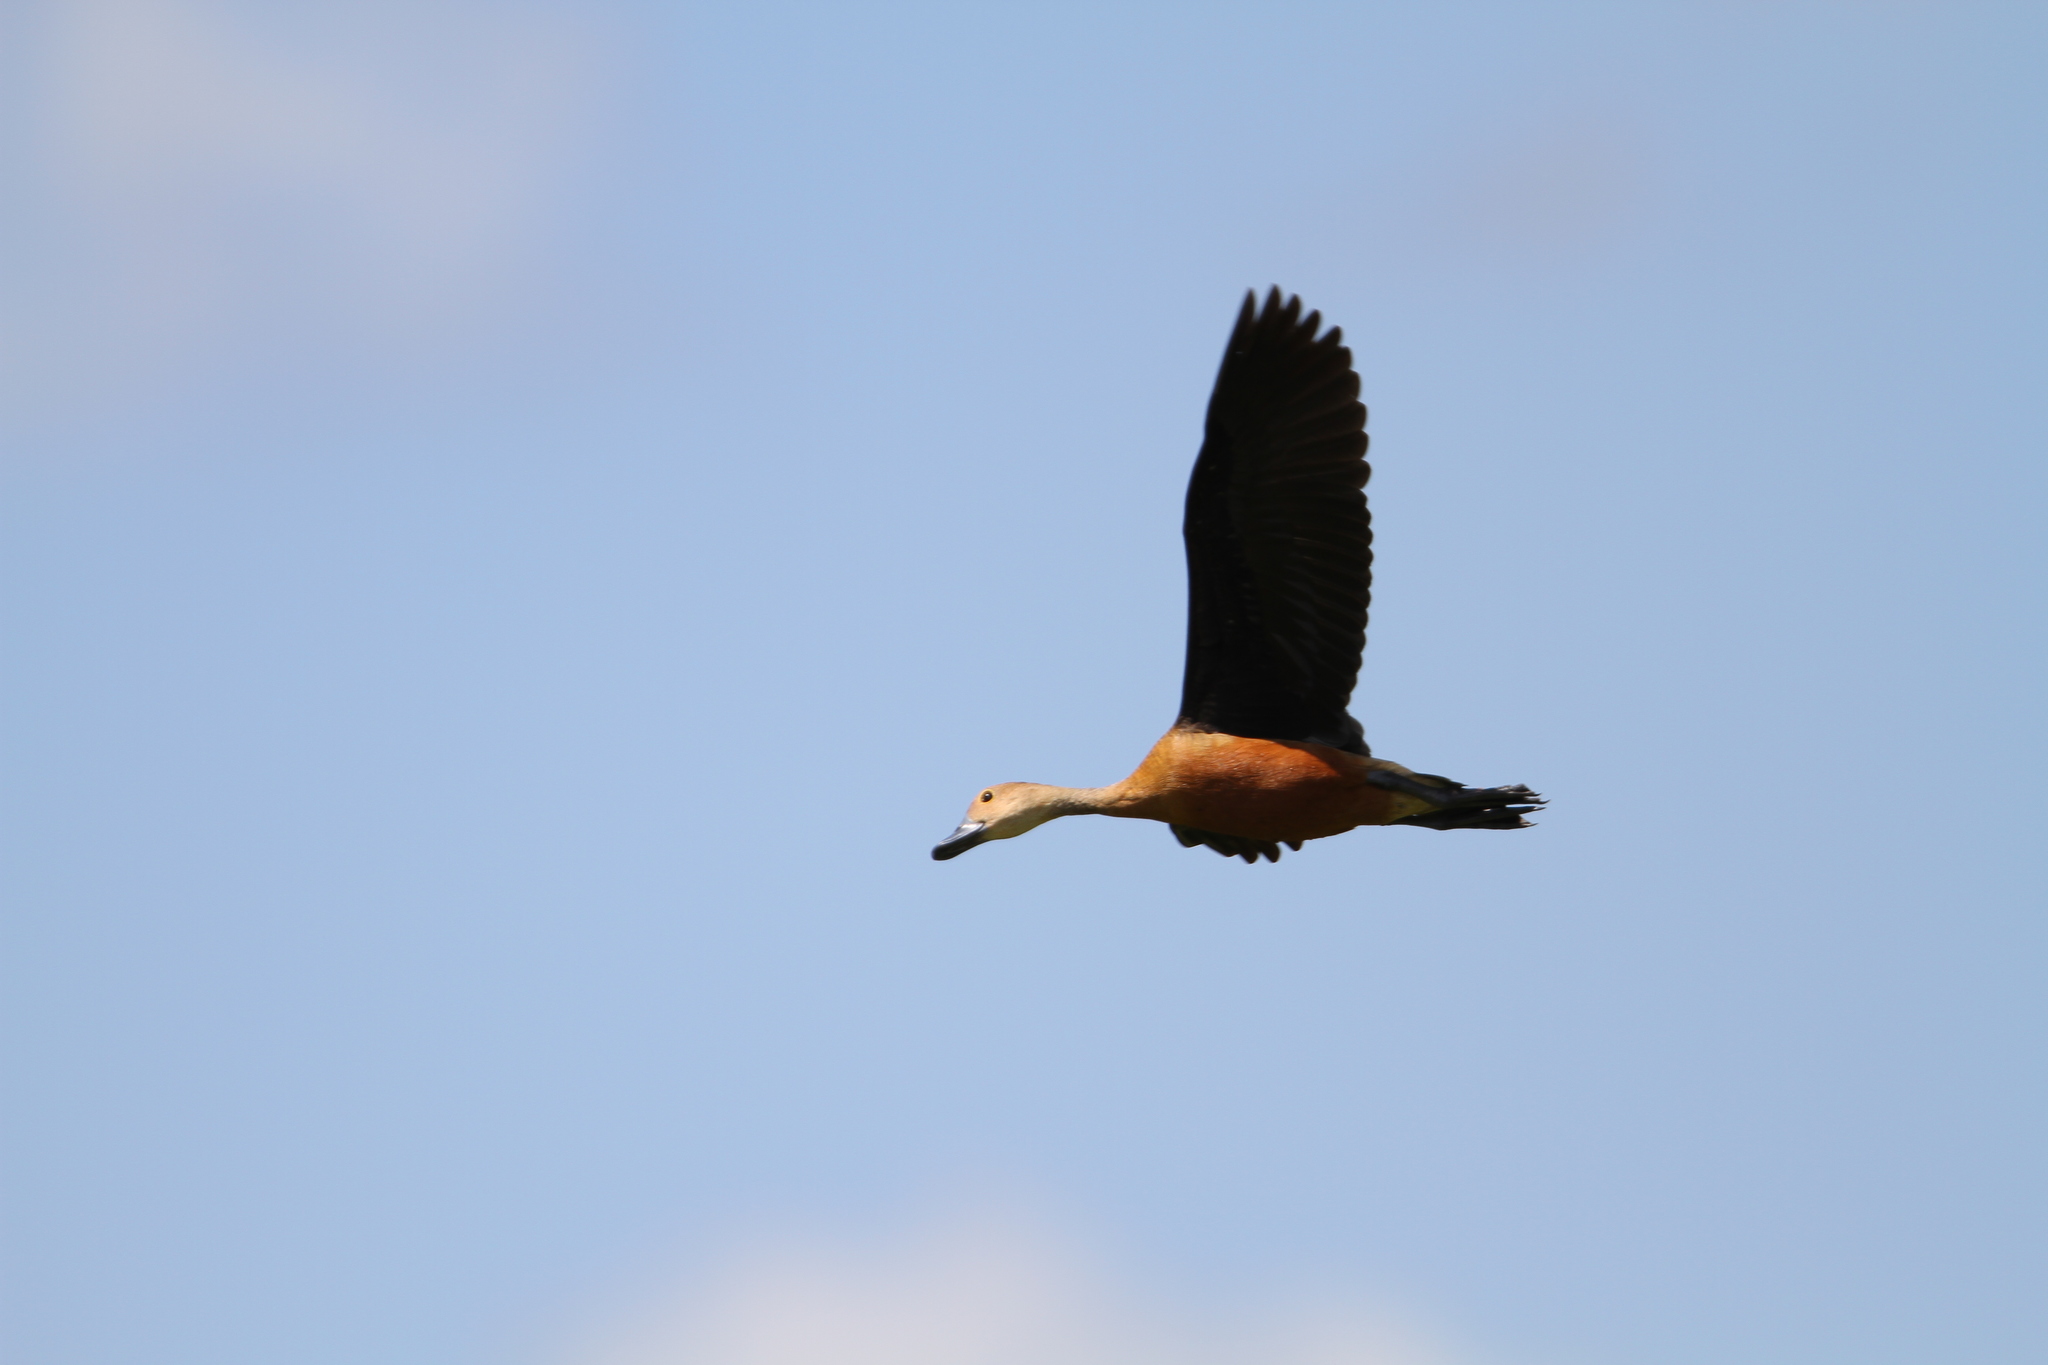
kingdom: Animalia
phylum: Chordata
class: Aves
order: Anseriformes
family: Anatidae
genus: Dendrocygna
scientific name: Dendrocygna javanica
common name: Lesser whistling-duck
